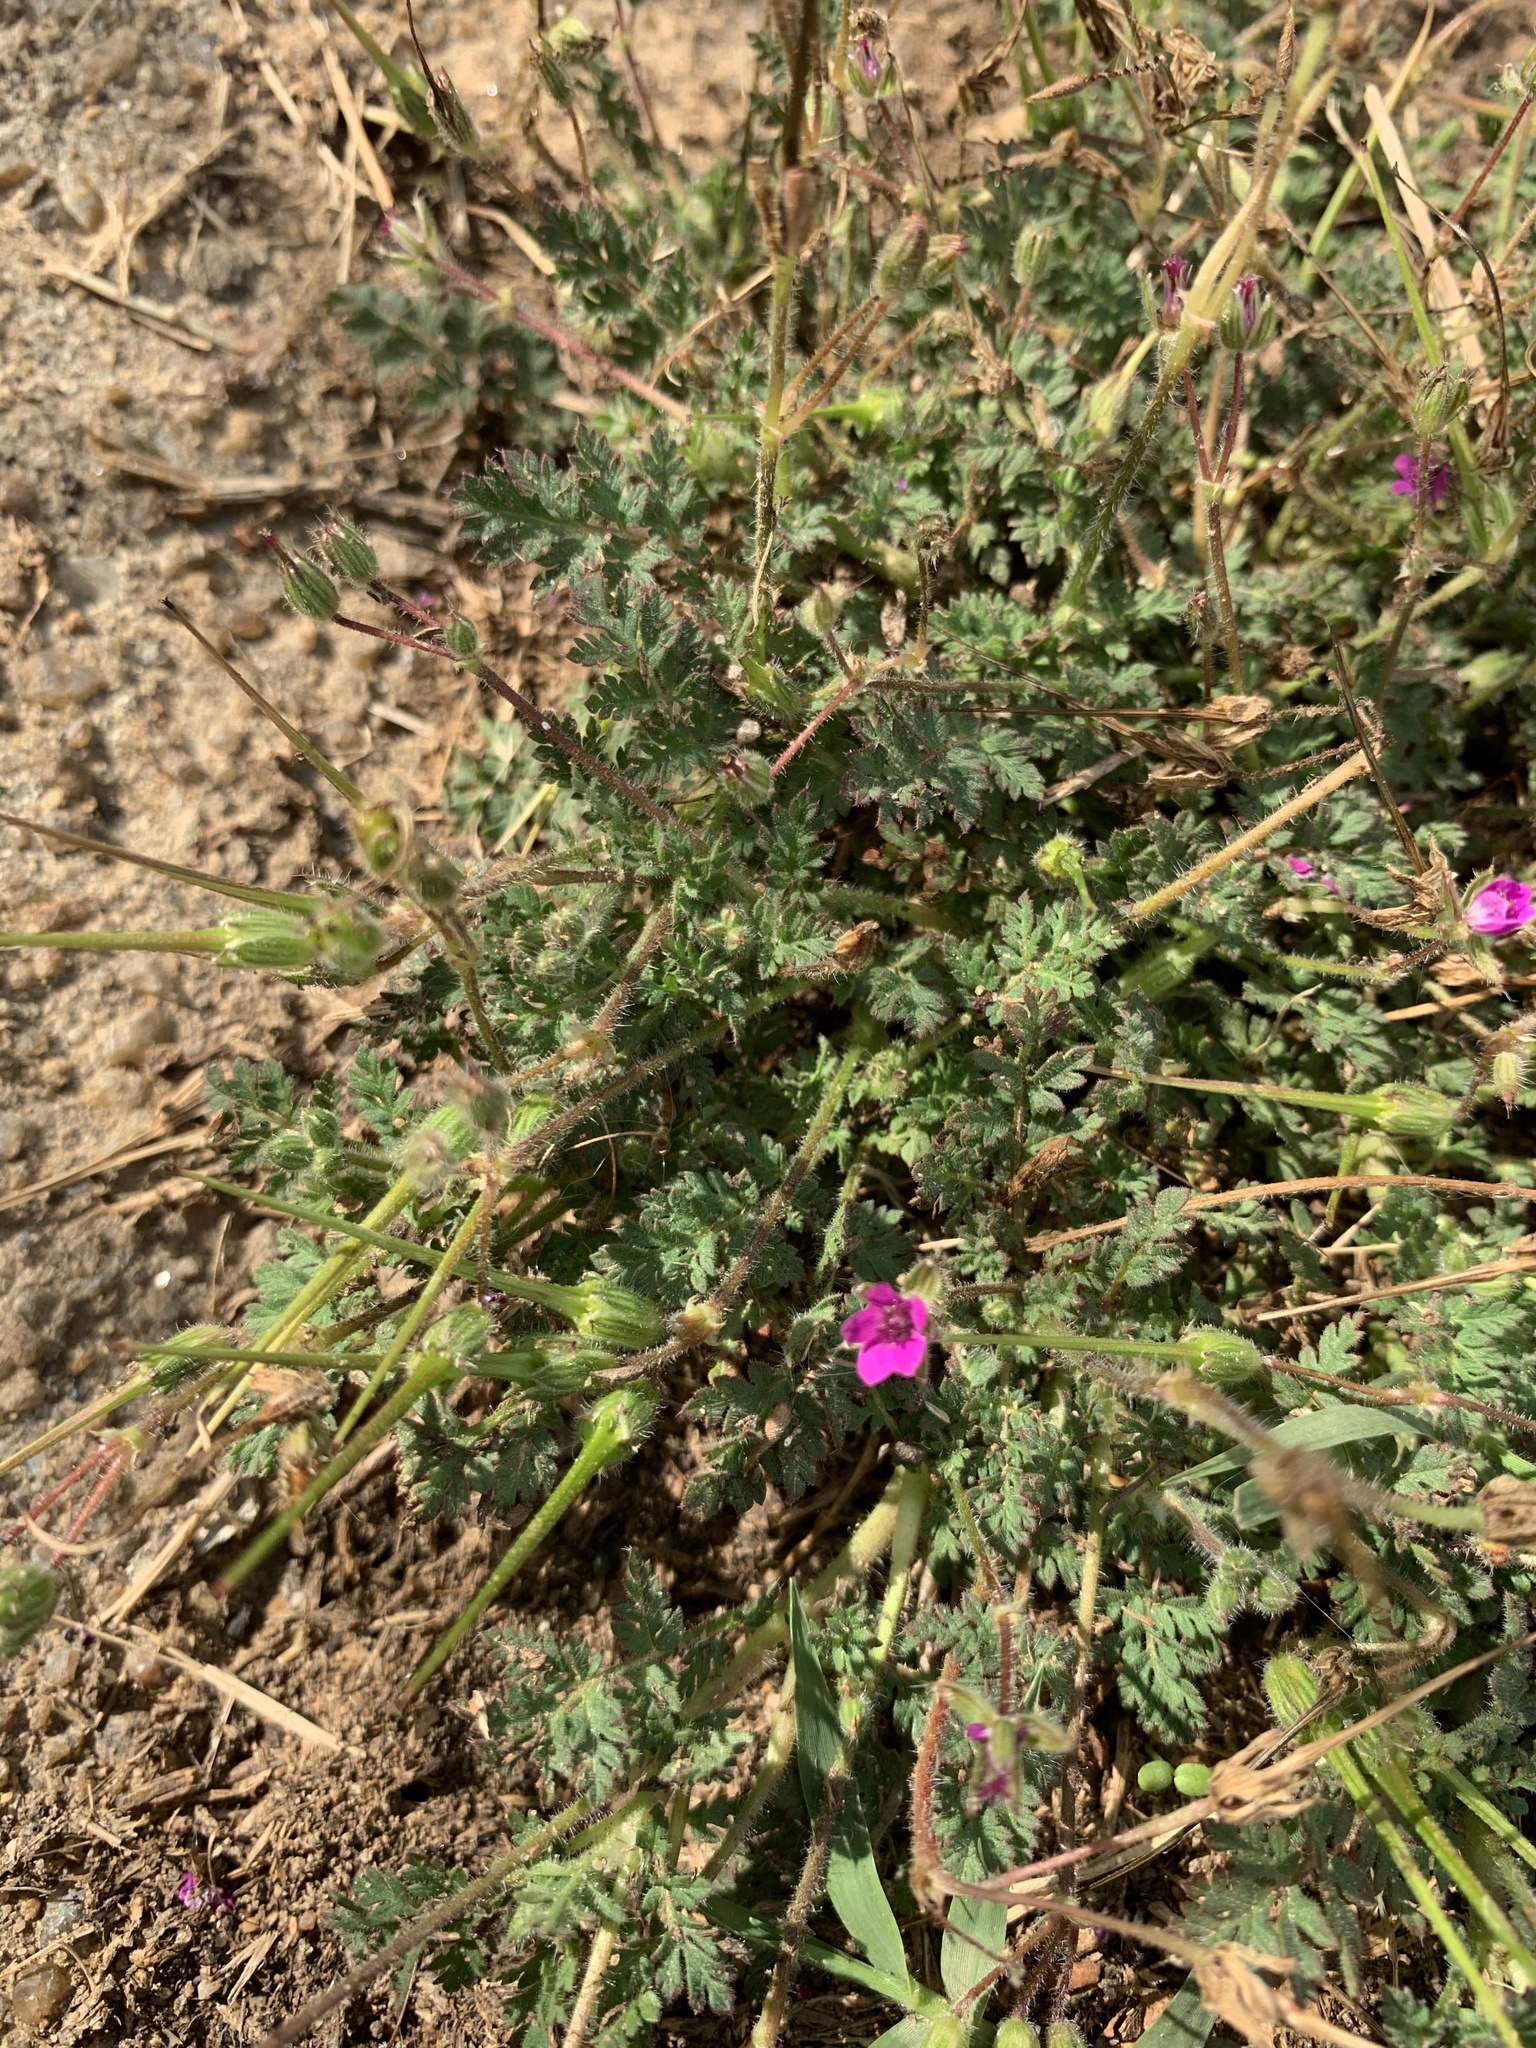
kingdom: Plantae
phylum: Tracheophyta
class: Magnoliopsida
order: Geraniales
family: Geraniaceae
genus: Erodium
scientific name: Erodium cicutarium
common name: Common stork's-bill
